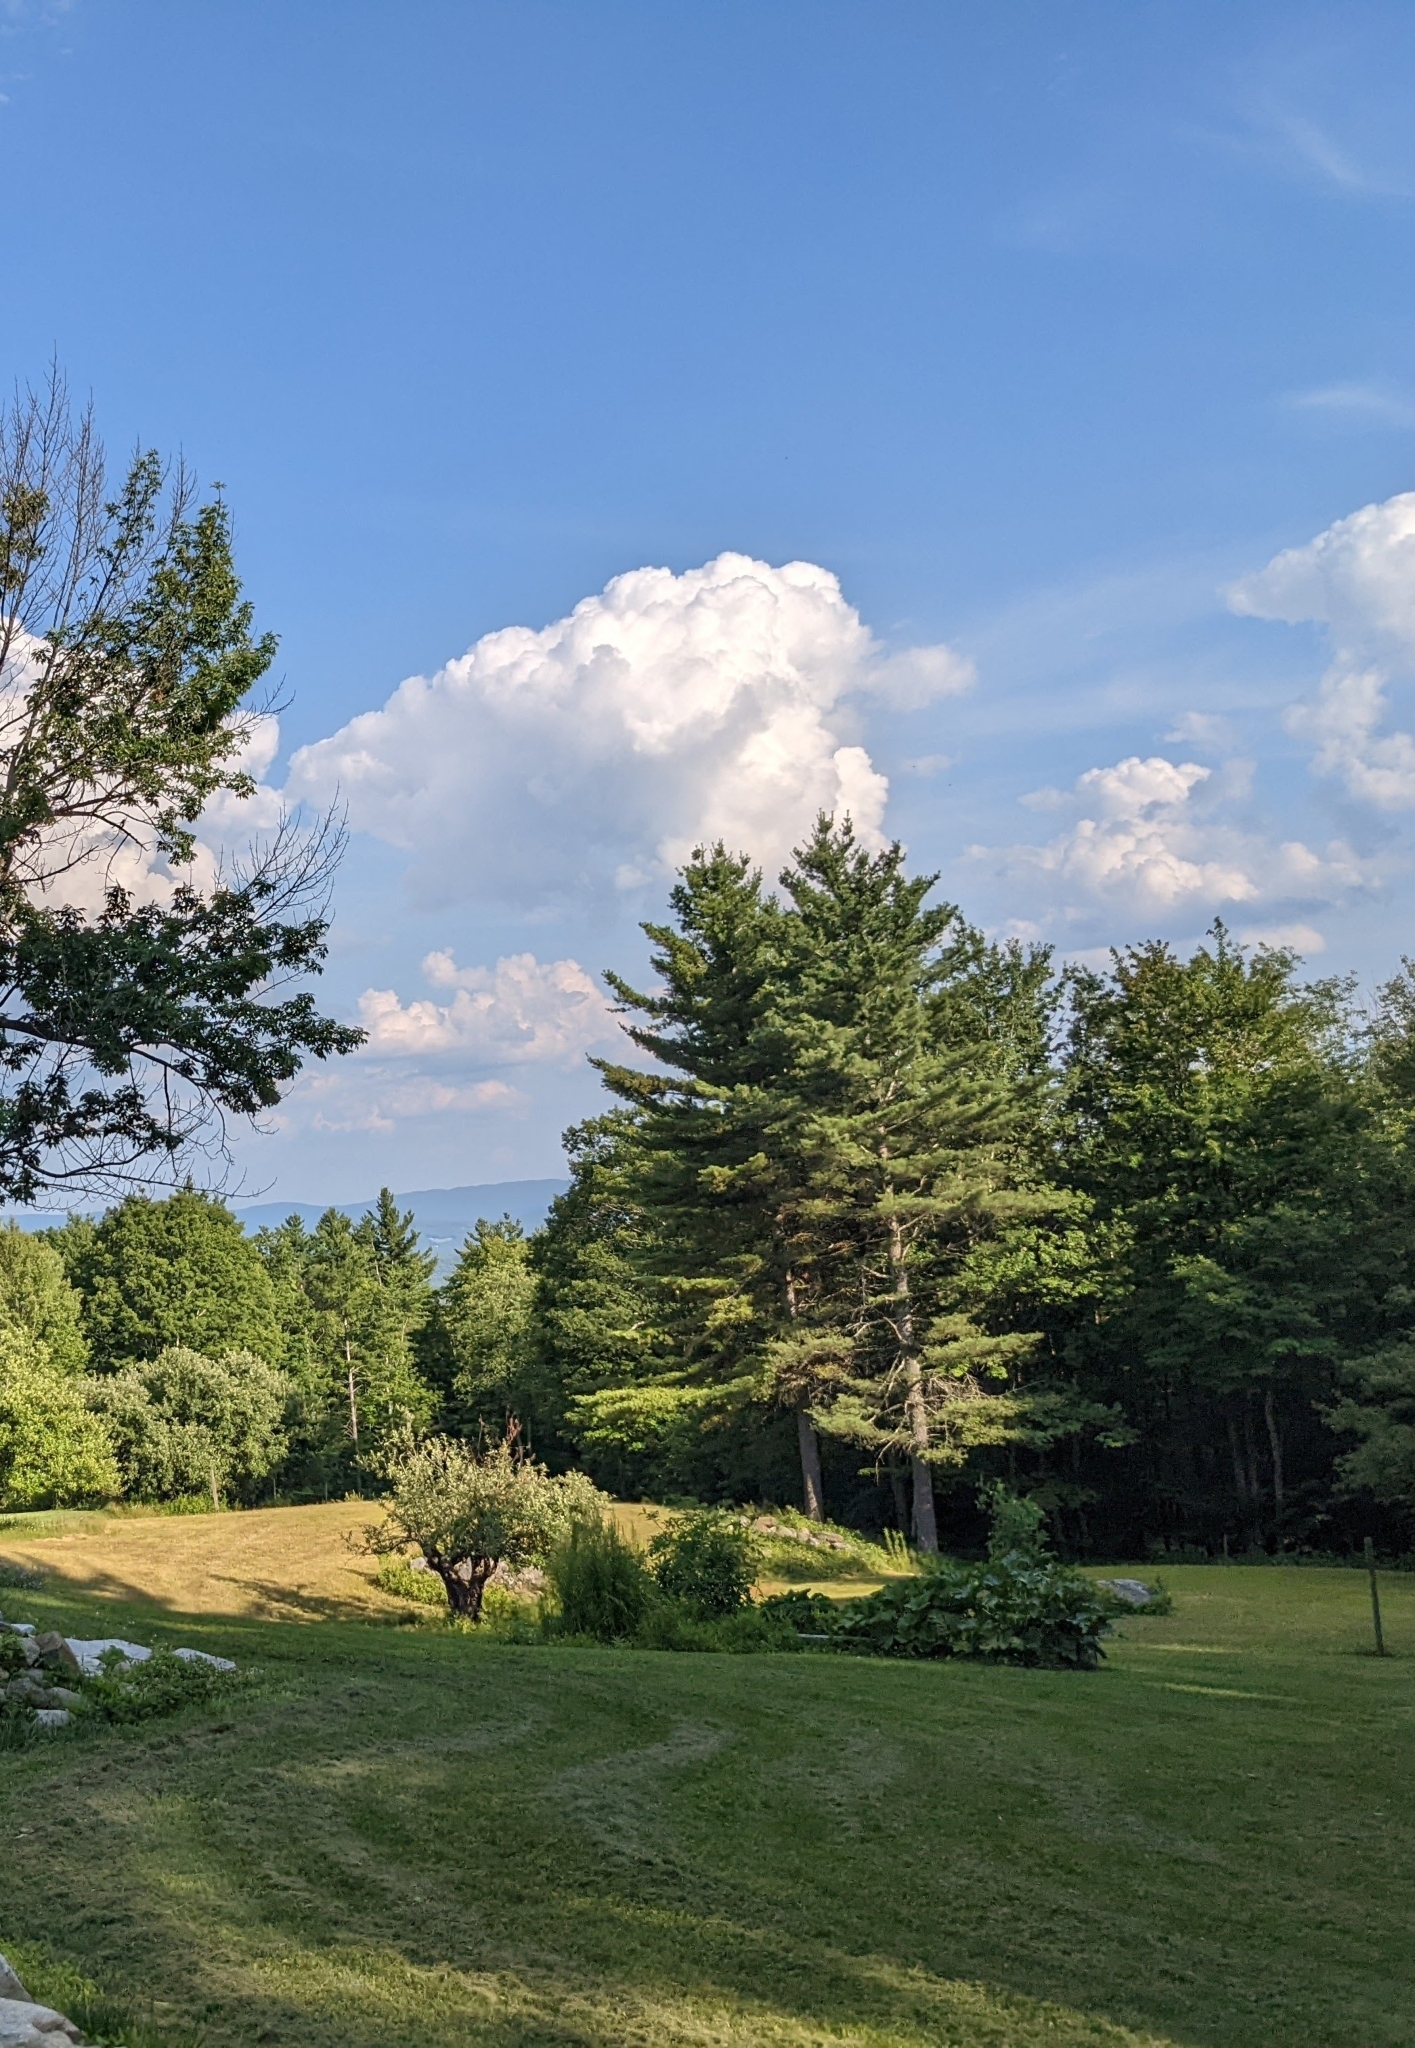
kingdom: Plantae
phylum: Tracheophyta
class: Pinopsida
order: Pinales
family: Pinaceae
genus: Pinus
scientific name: Pinus strobus
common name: Weymouth pine
